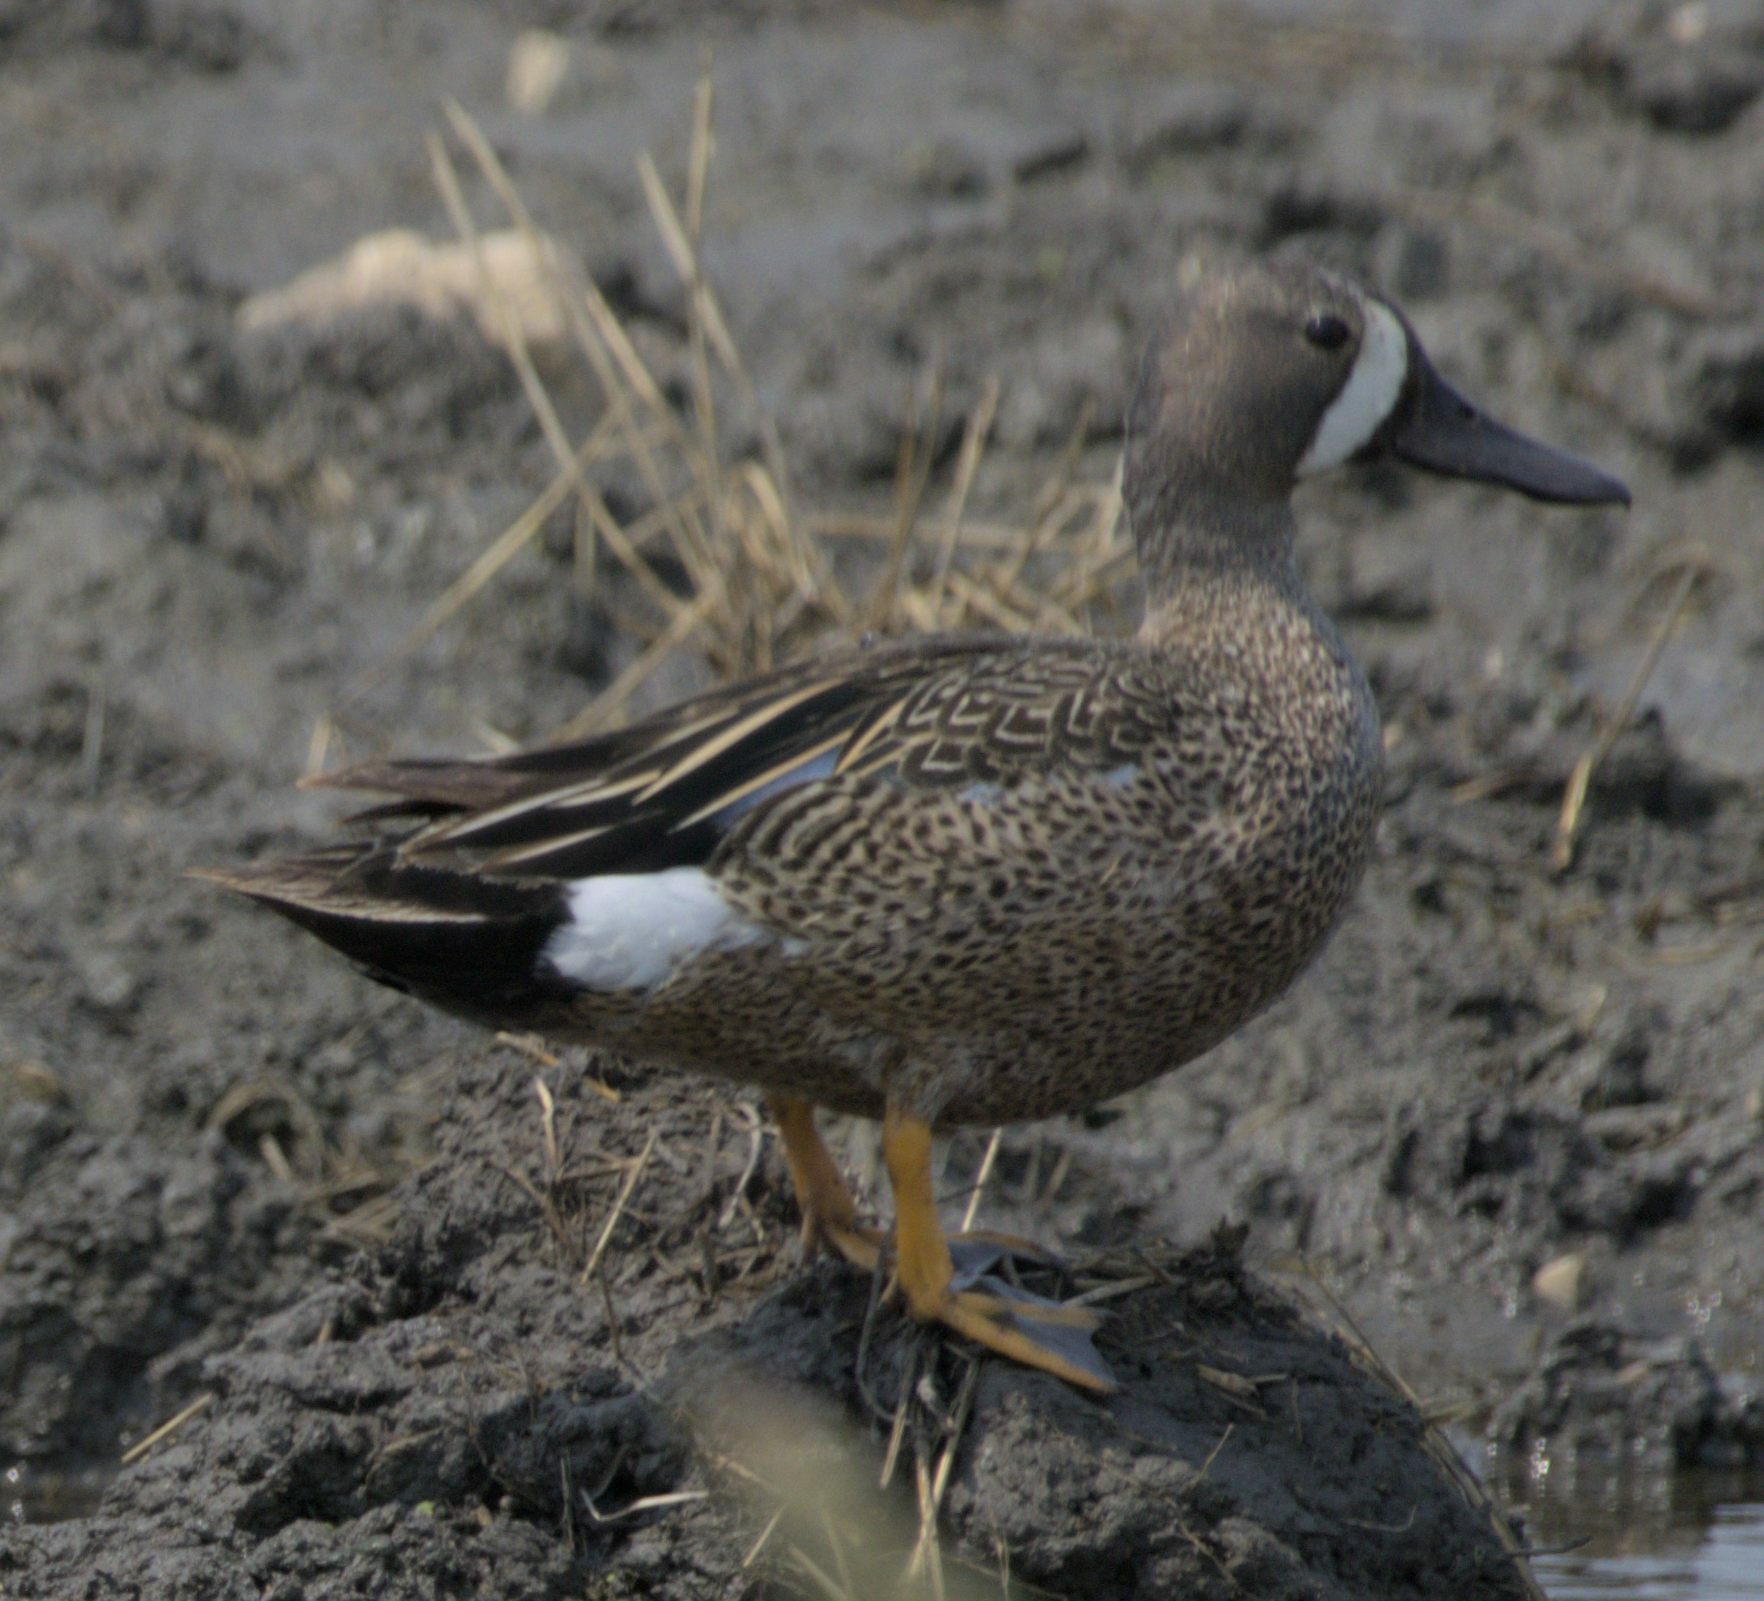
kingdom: Animalia
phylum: Chordata
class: Aves
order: Anseriformes
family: Anatidae
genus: Spatula
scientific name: Spatula discors
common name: Blue-winged teal
